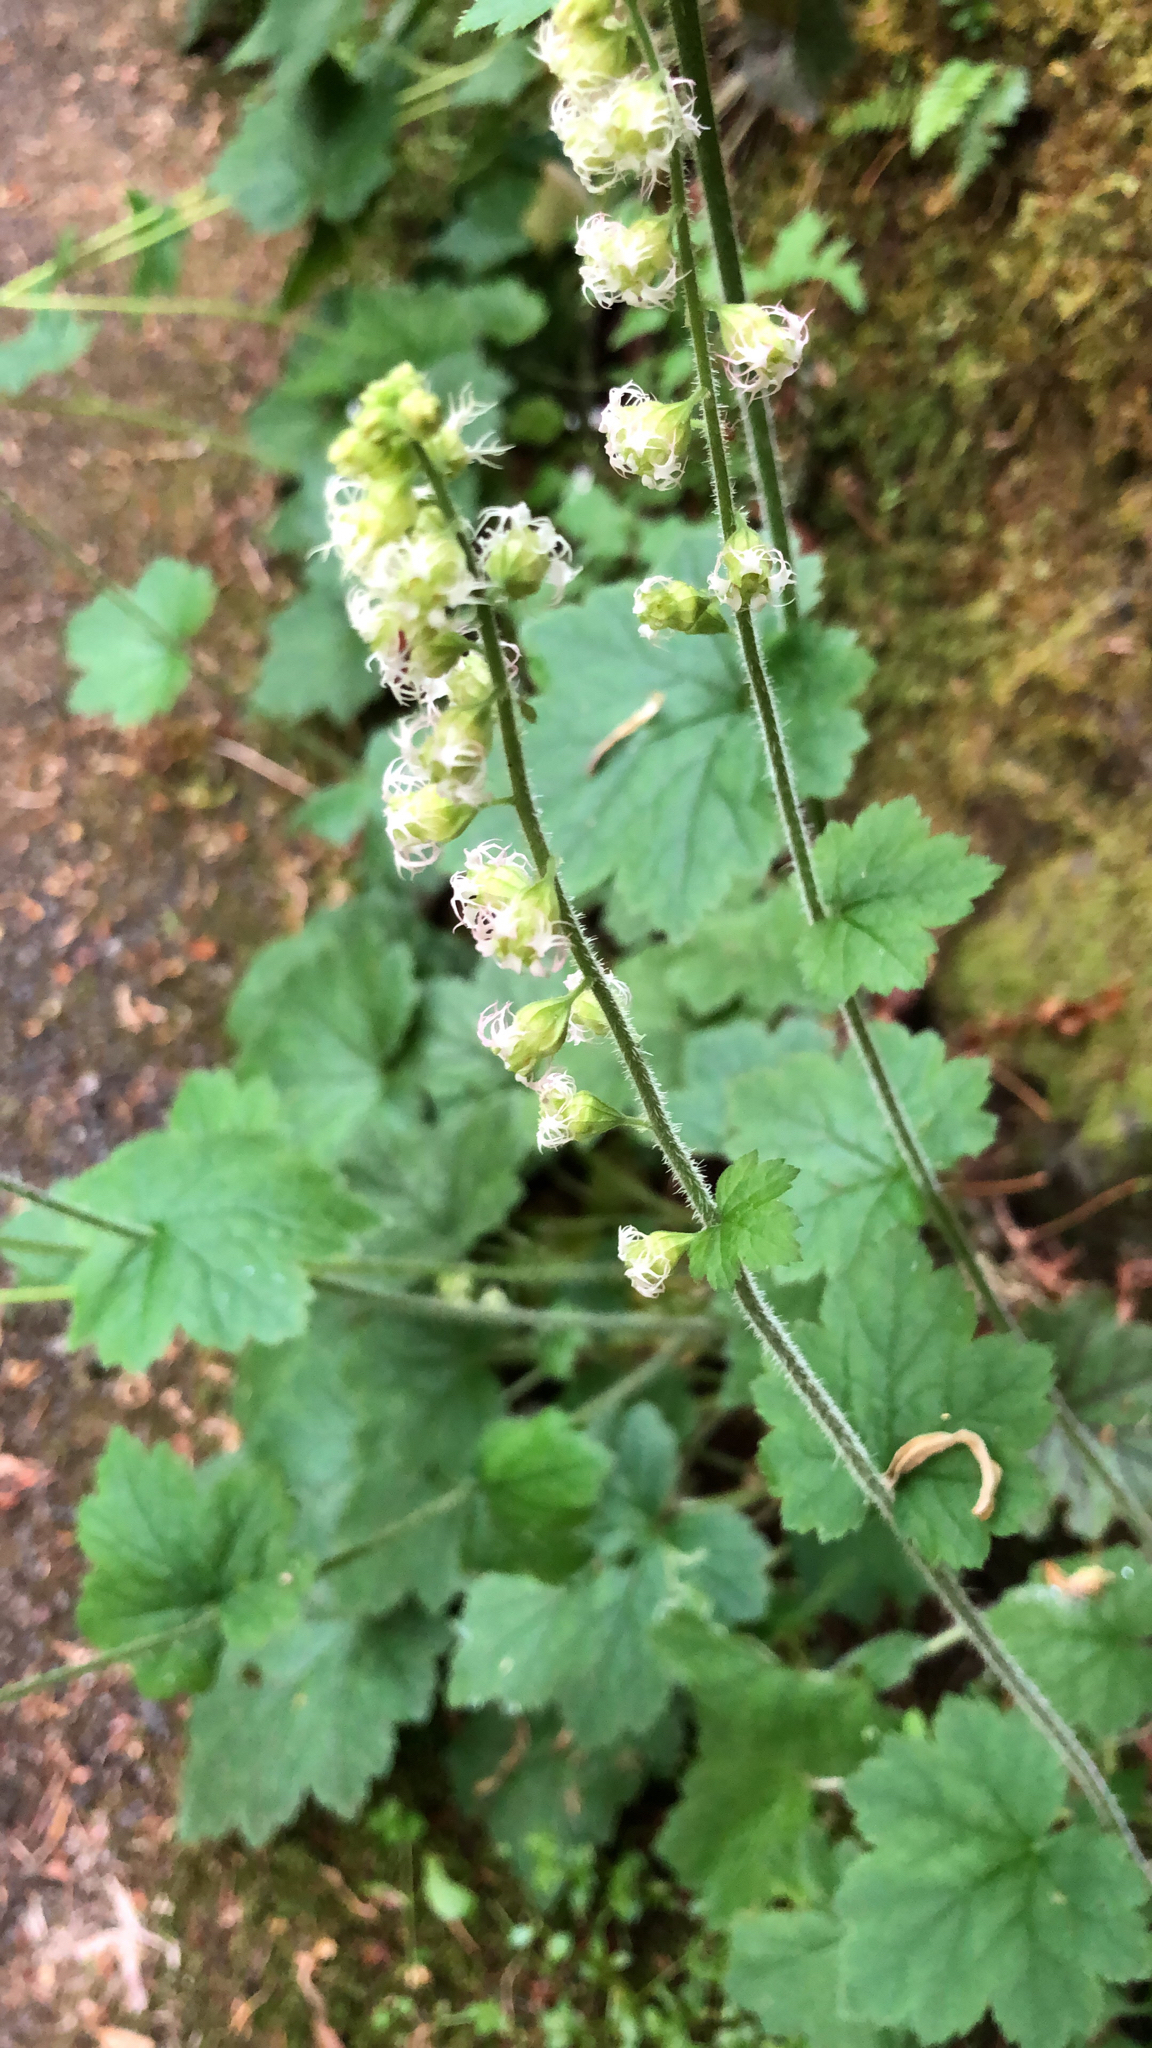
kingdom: Plantae
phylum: Tracheophyta
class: Magnoliopsida
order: Saxifragales
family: Saxifragaceae
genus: Tellima
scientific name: Tellima grandiflora
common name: Fringecups
